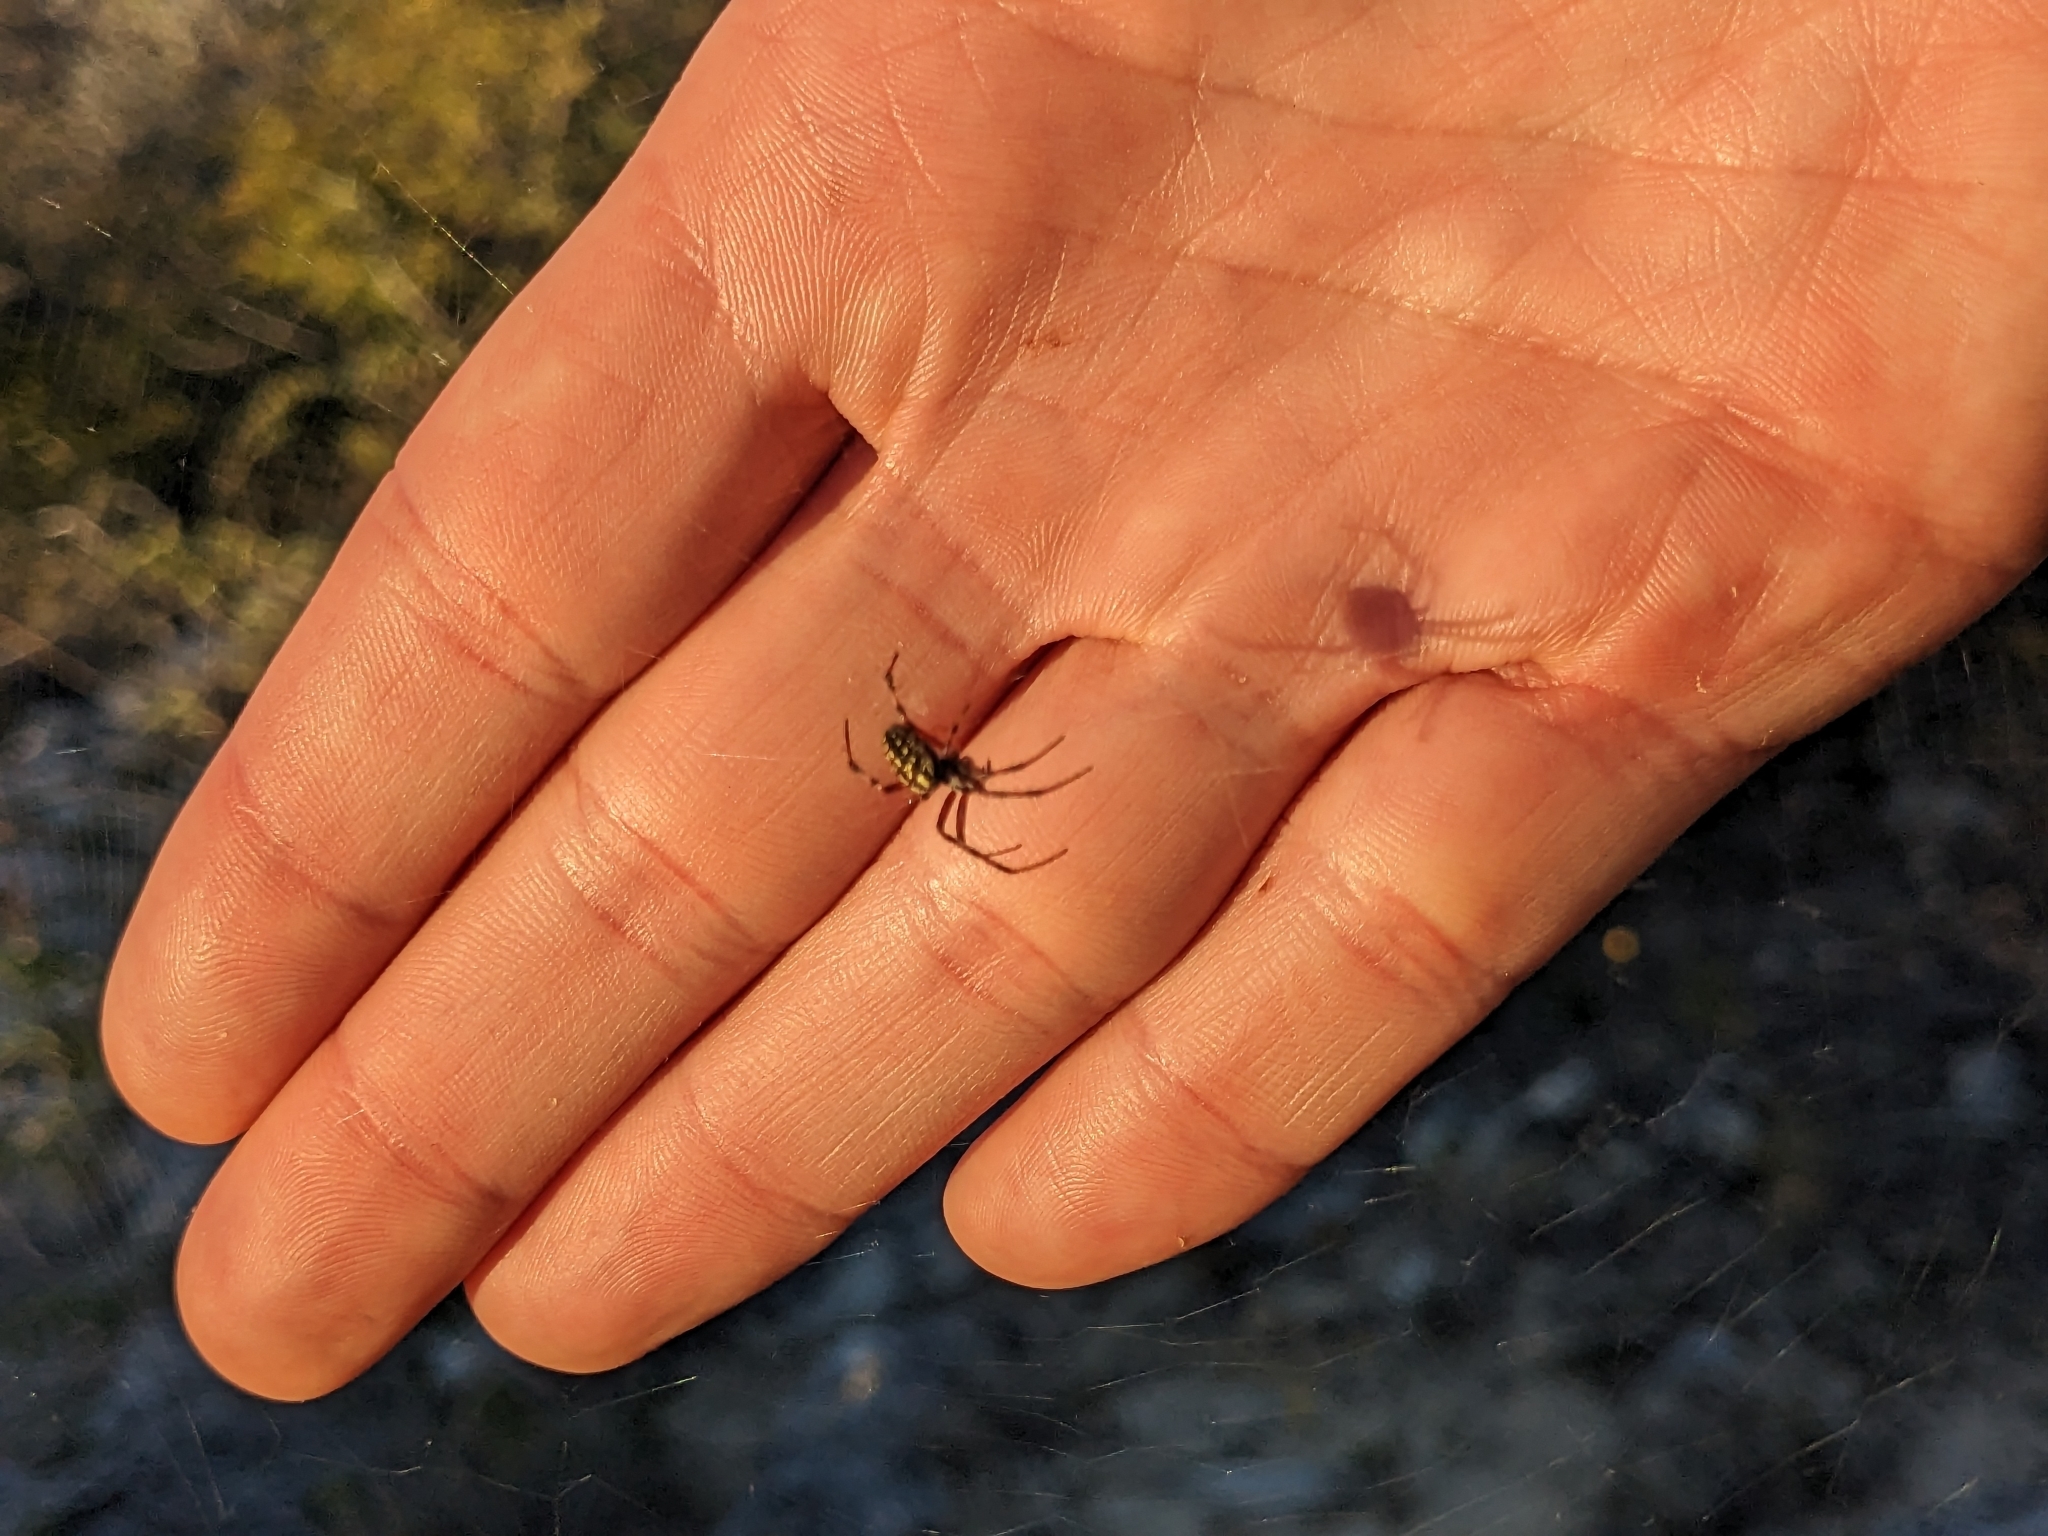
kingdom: Animalia
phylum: Arthropoda
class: Arachnida
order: Araneae
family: Araneidae
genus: Neoscona
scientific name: Neoscona oaxacensis
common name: Orb weavers
